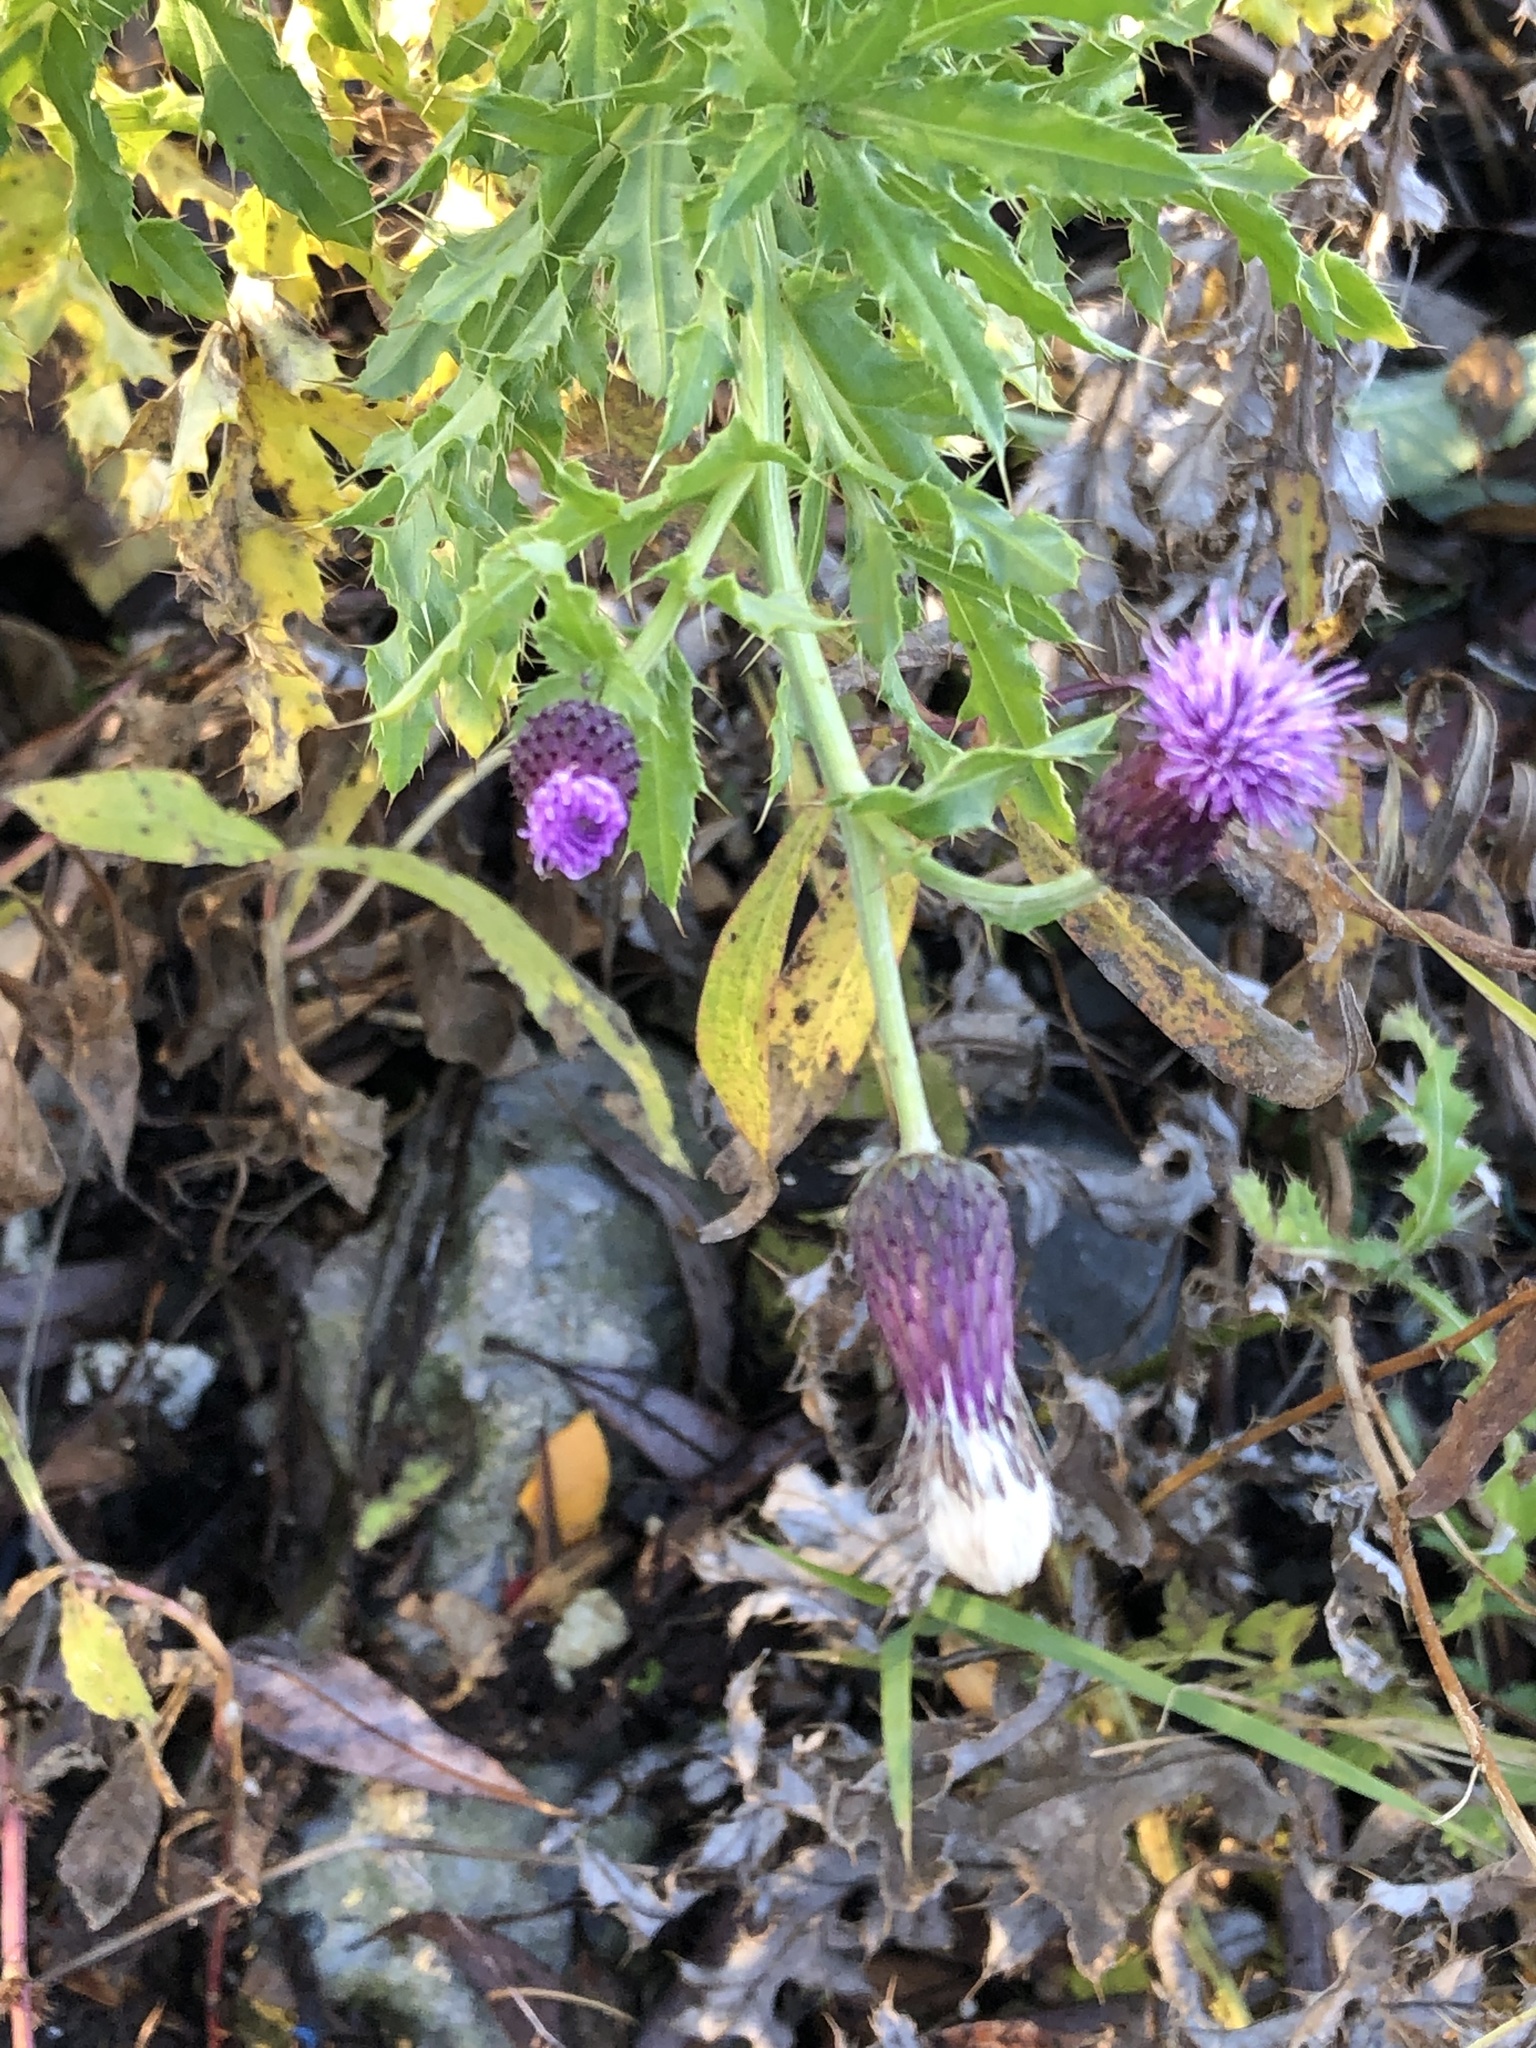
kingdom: Plantae
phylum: Tracheophyta
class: Magnoliopsida
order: Asterales
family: Asteraceae
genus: Cirsium
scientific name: Cirsium arvense
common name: Creeping thistle
